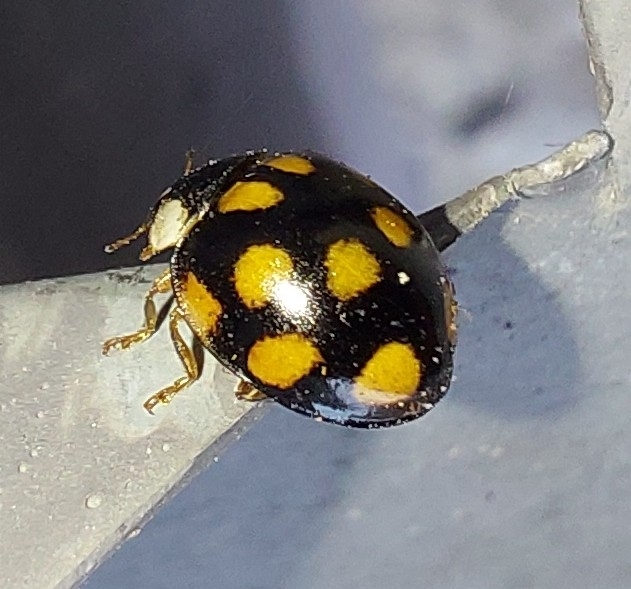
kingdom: Animalia
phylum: Arthropoda
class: Insecta
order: Coleoptera
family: Coccinellidae
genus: Harmonia
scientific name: Harmonia axyridis
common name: Harlequin ladybird
